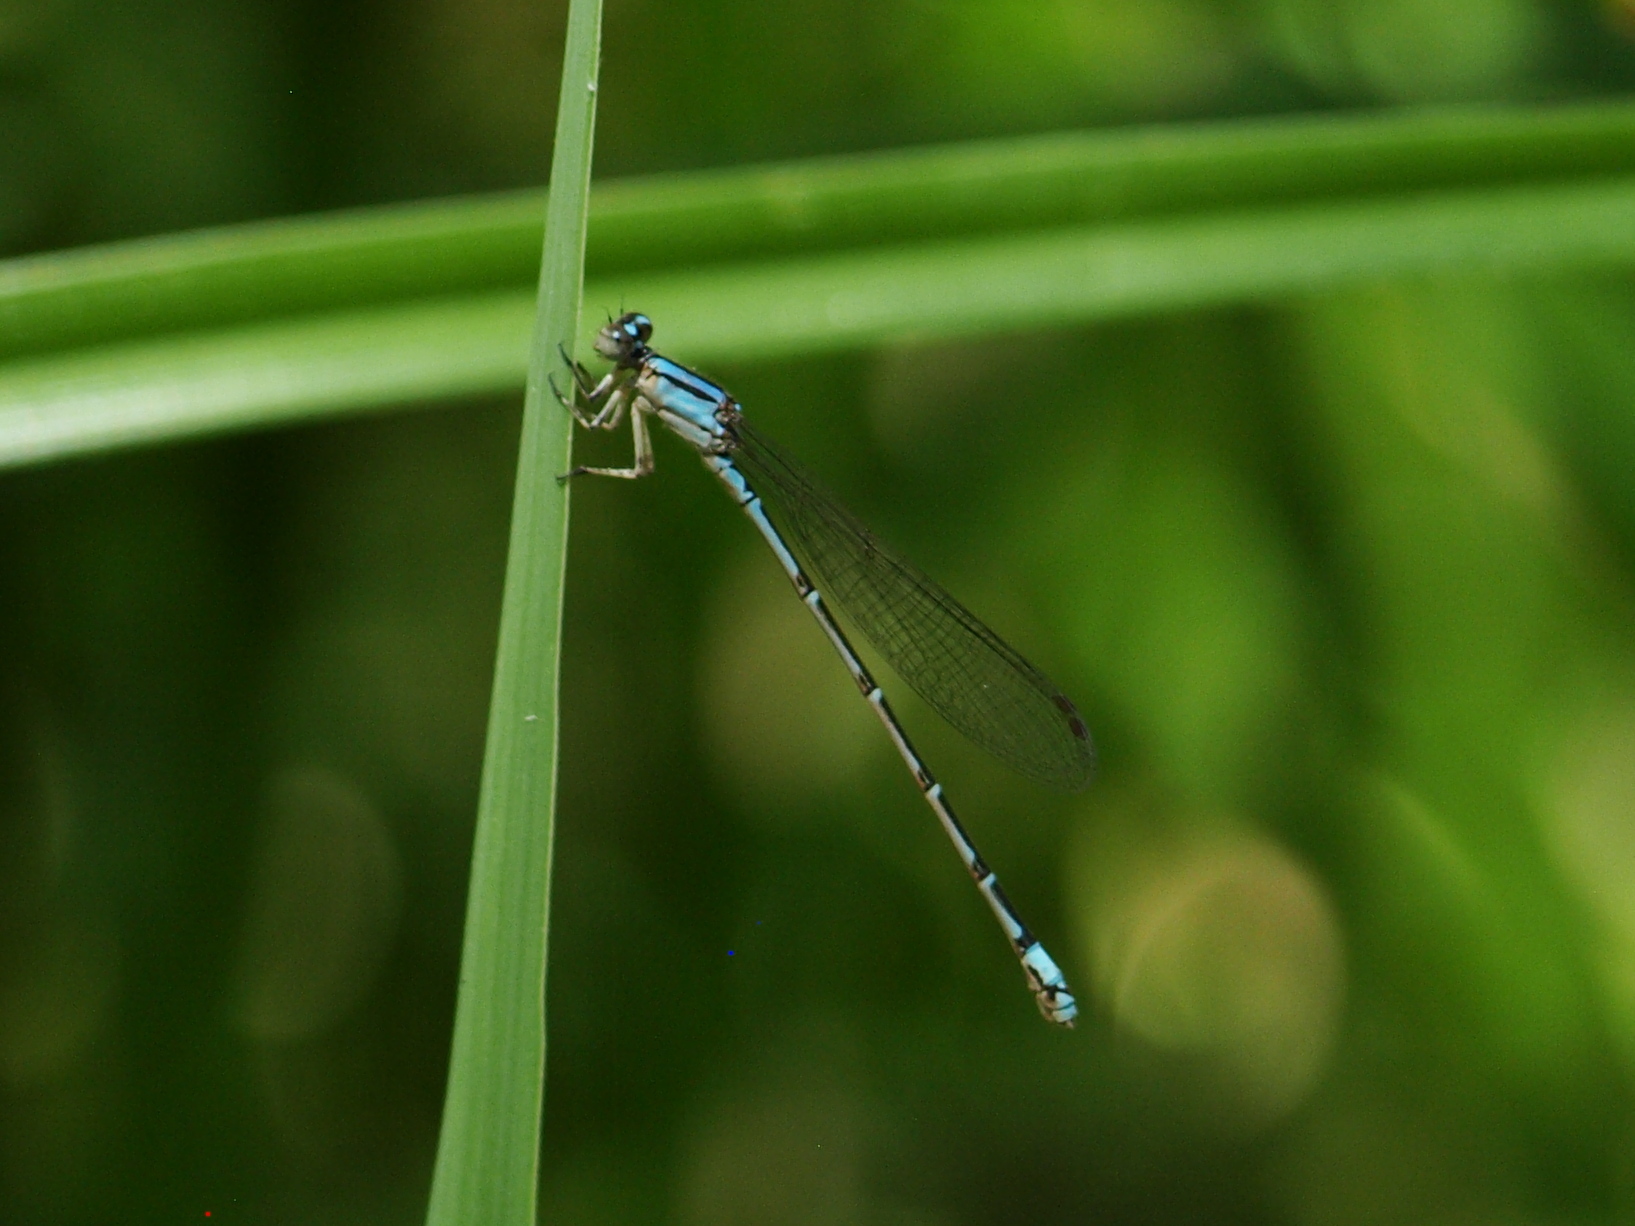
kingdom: Animalia
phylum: Arthropoda
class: Insecta
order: Odonata
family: Coenagrionidae
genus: Enallagma
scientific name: Enallagma novaehispaniae
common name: Neotropical bluet
